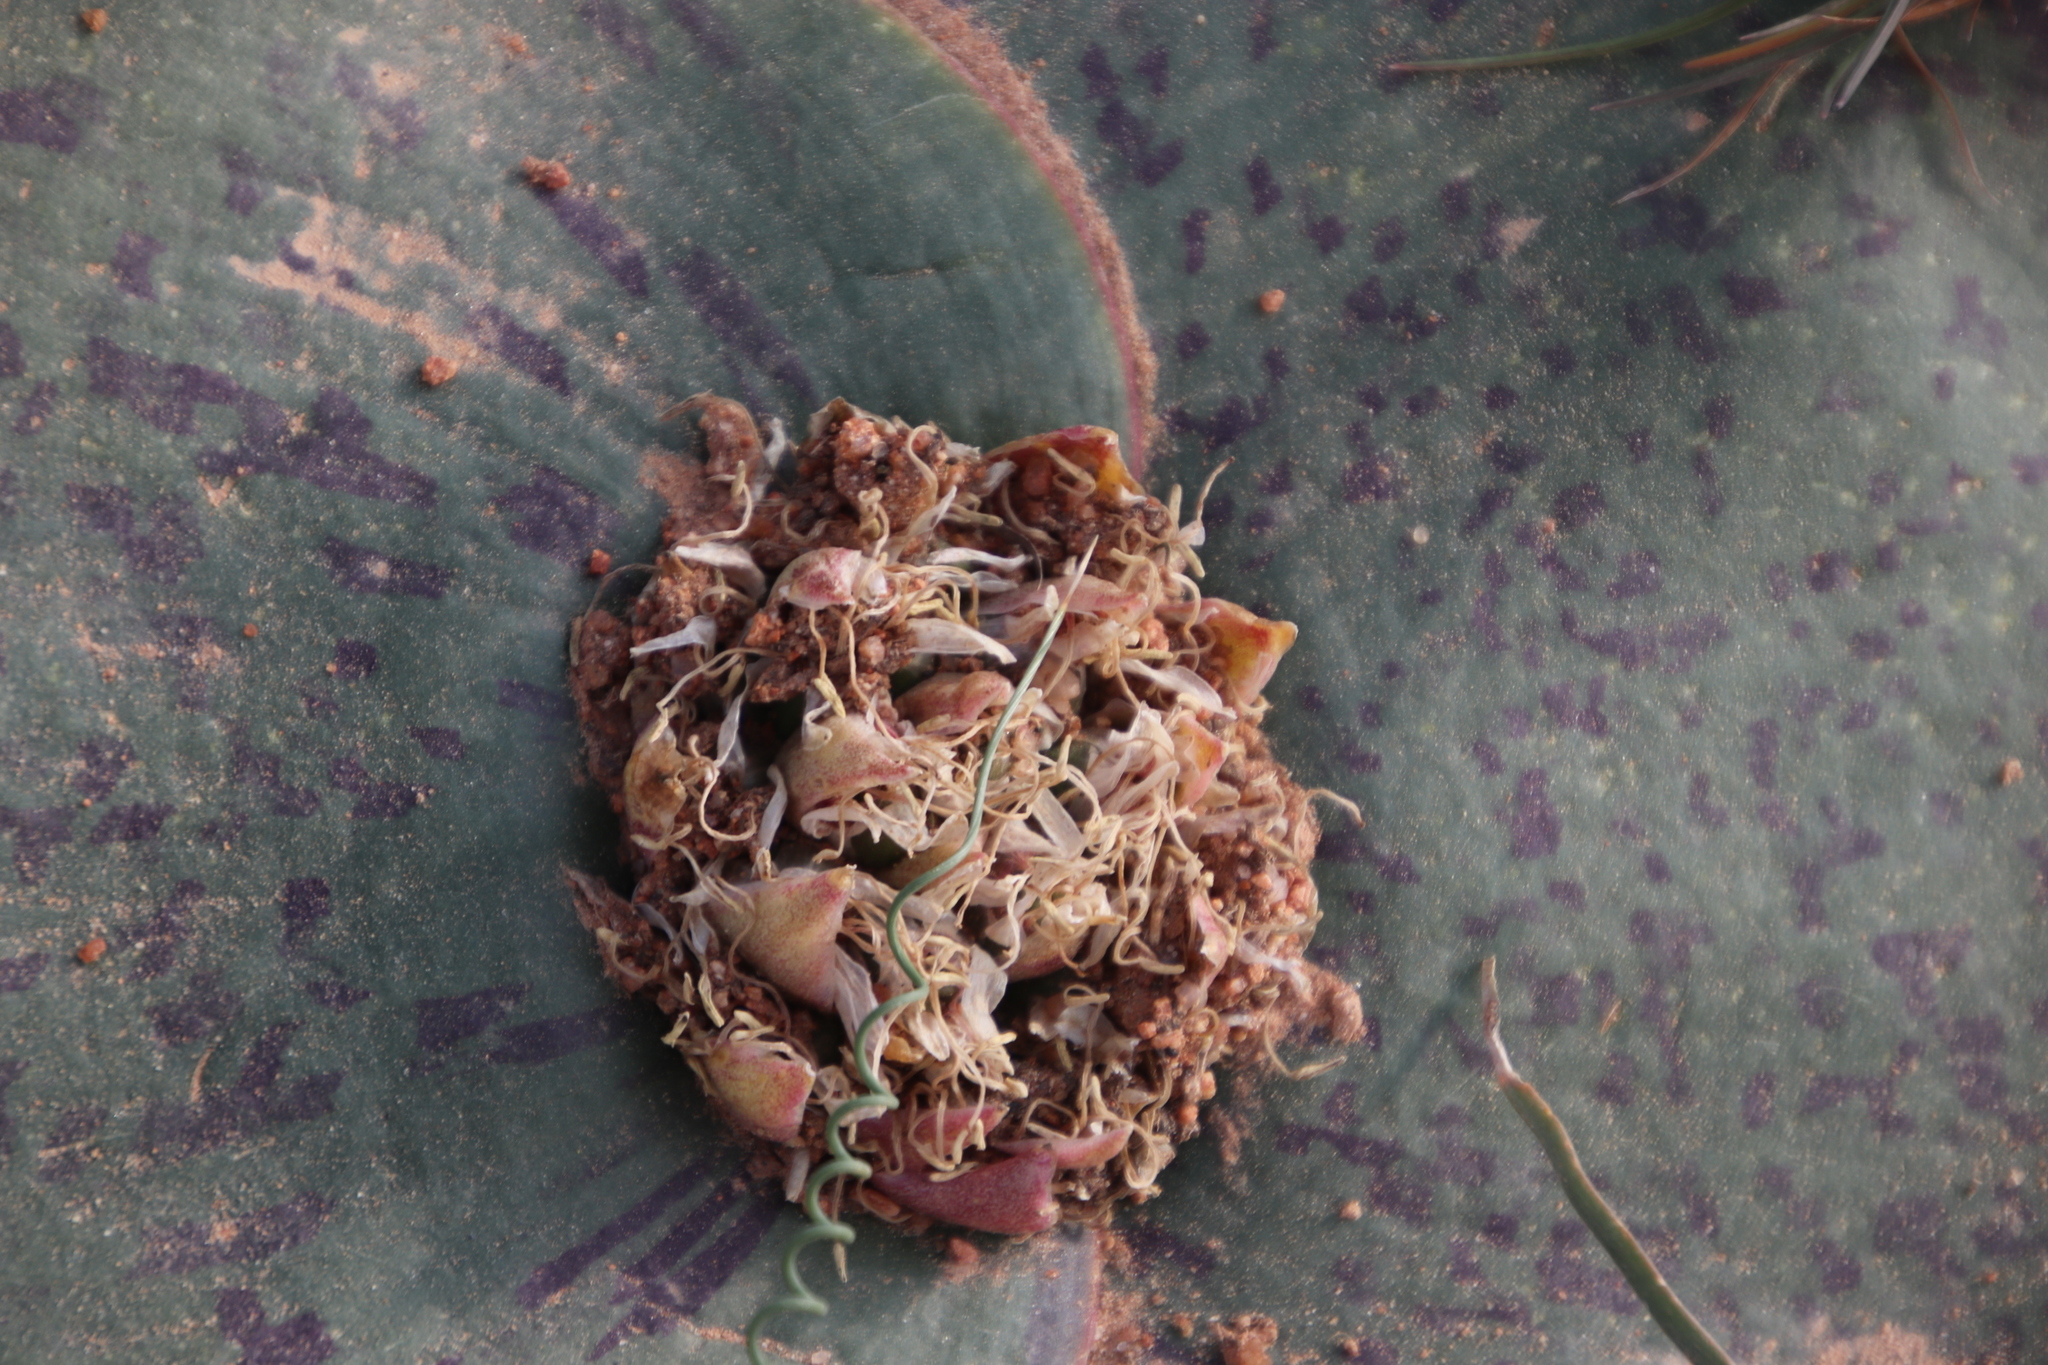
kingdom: Plantae
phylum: Tracheophyta
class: Liliopsida
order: Asparagales
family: Asparagaceae
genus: Massonia
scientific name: Massonia depressa
